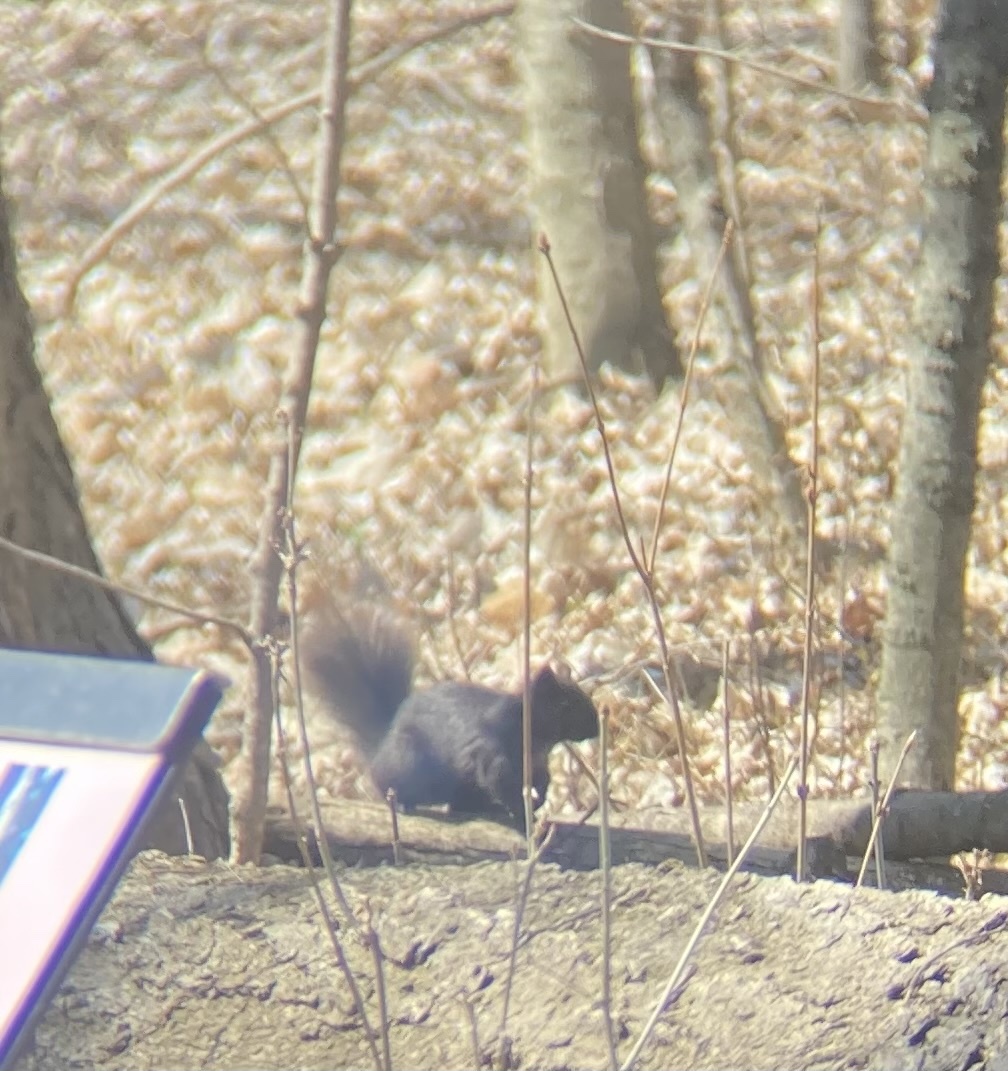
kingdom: Animalia
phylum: Chordata
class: Mammalia
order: Rodentia
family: Sciuridae
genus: Sciurus
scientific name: Sciurus carolinensis
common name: Eastern gray squirrel
